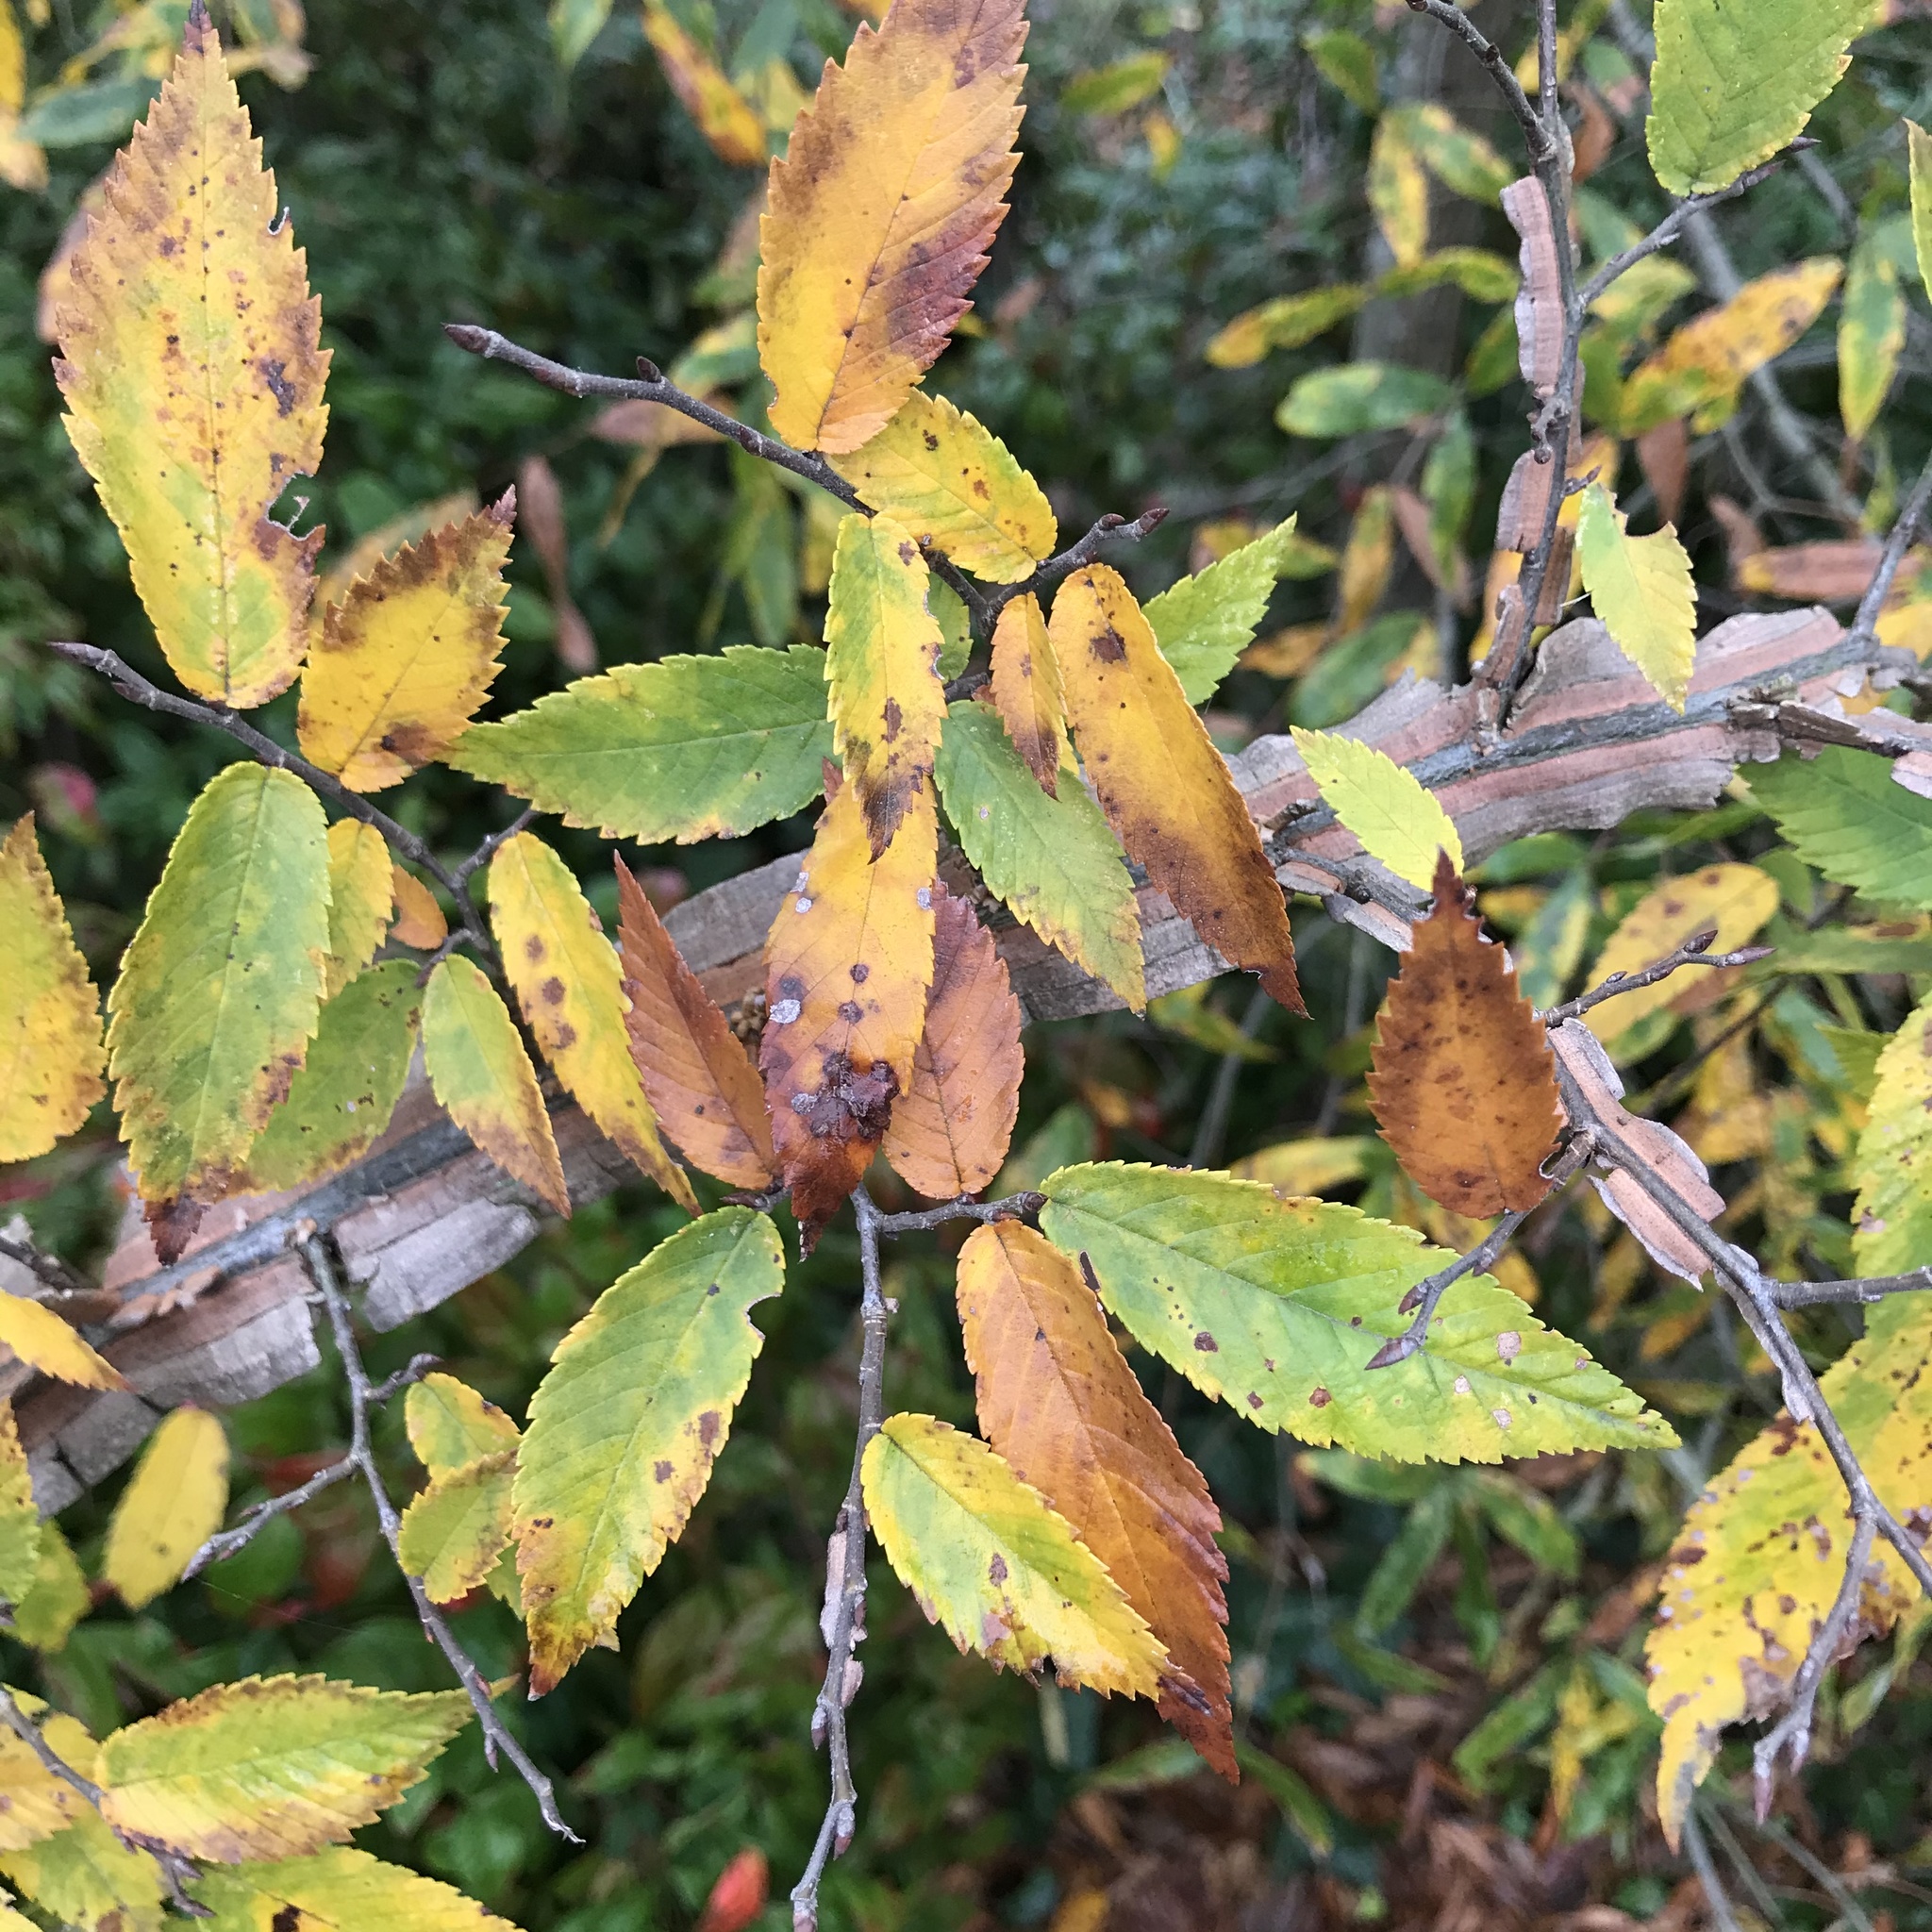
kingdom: Plantae
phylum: Tracheophyta
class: Magnoliopsida
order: Rosales
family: Ulmaceae
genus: Ulmus
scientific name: Ulmus alata
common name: Winged elm
